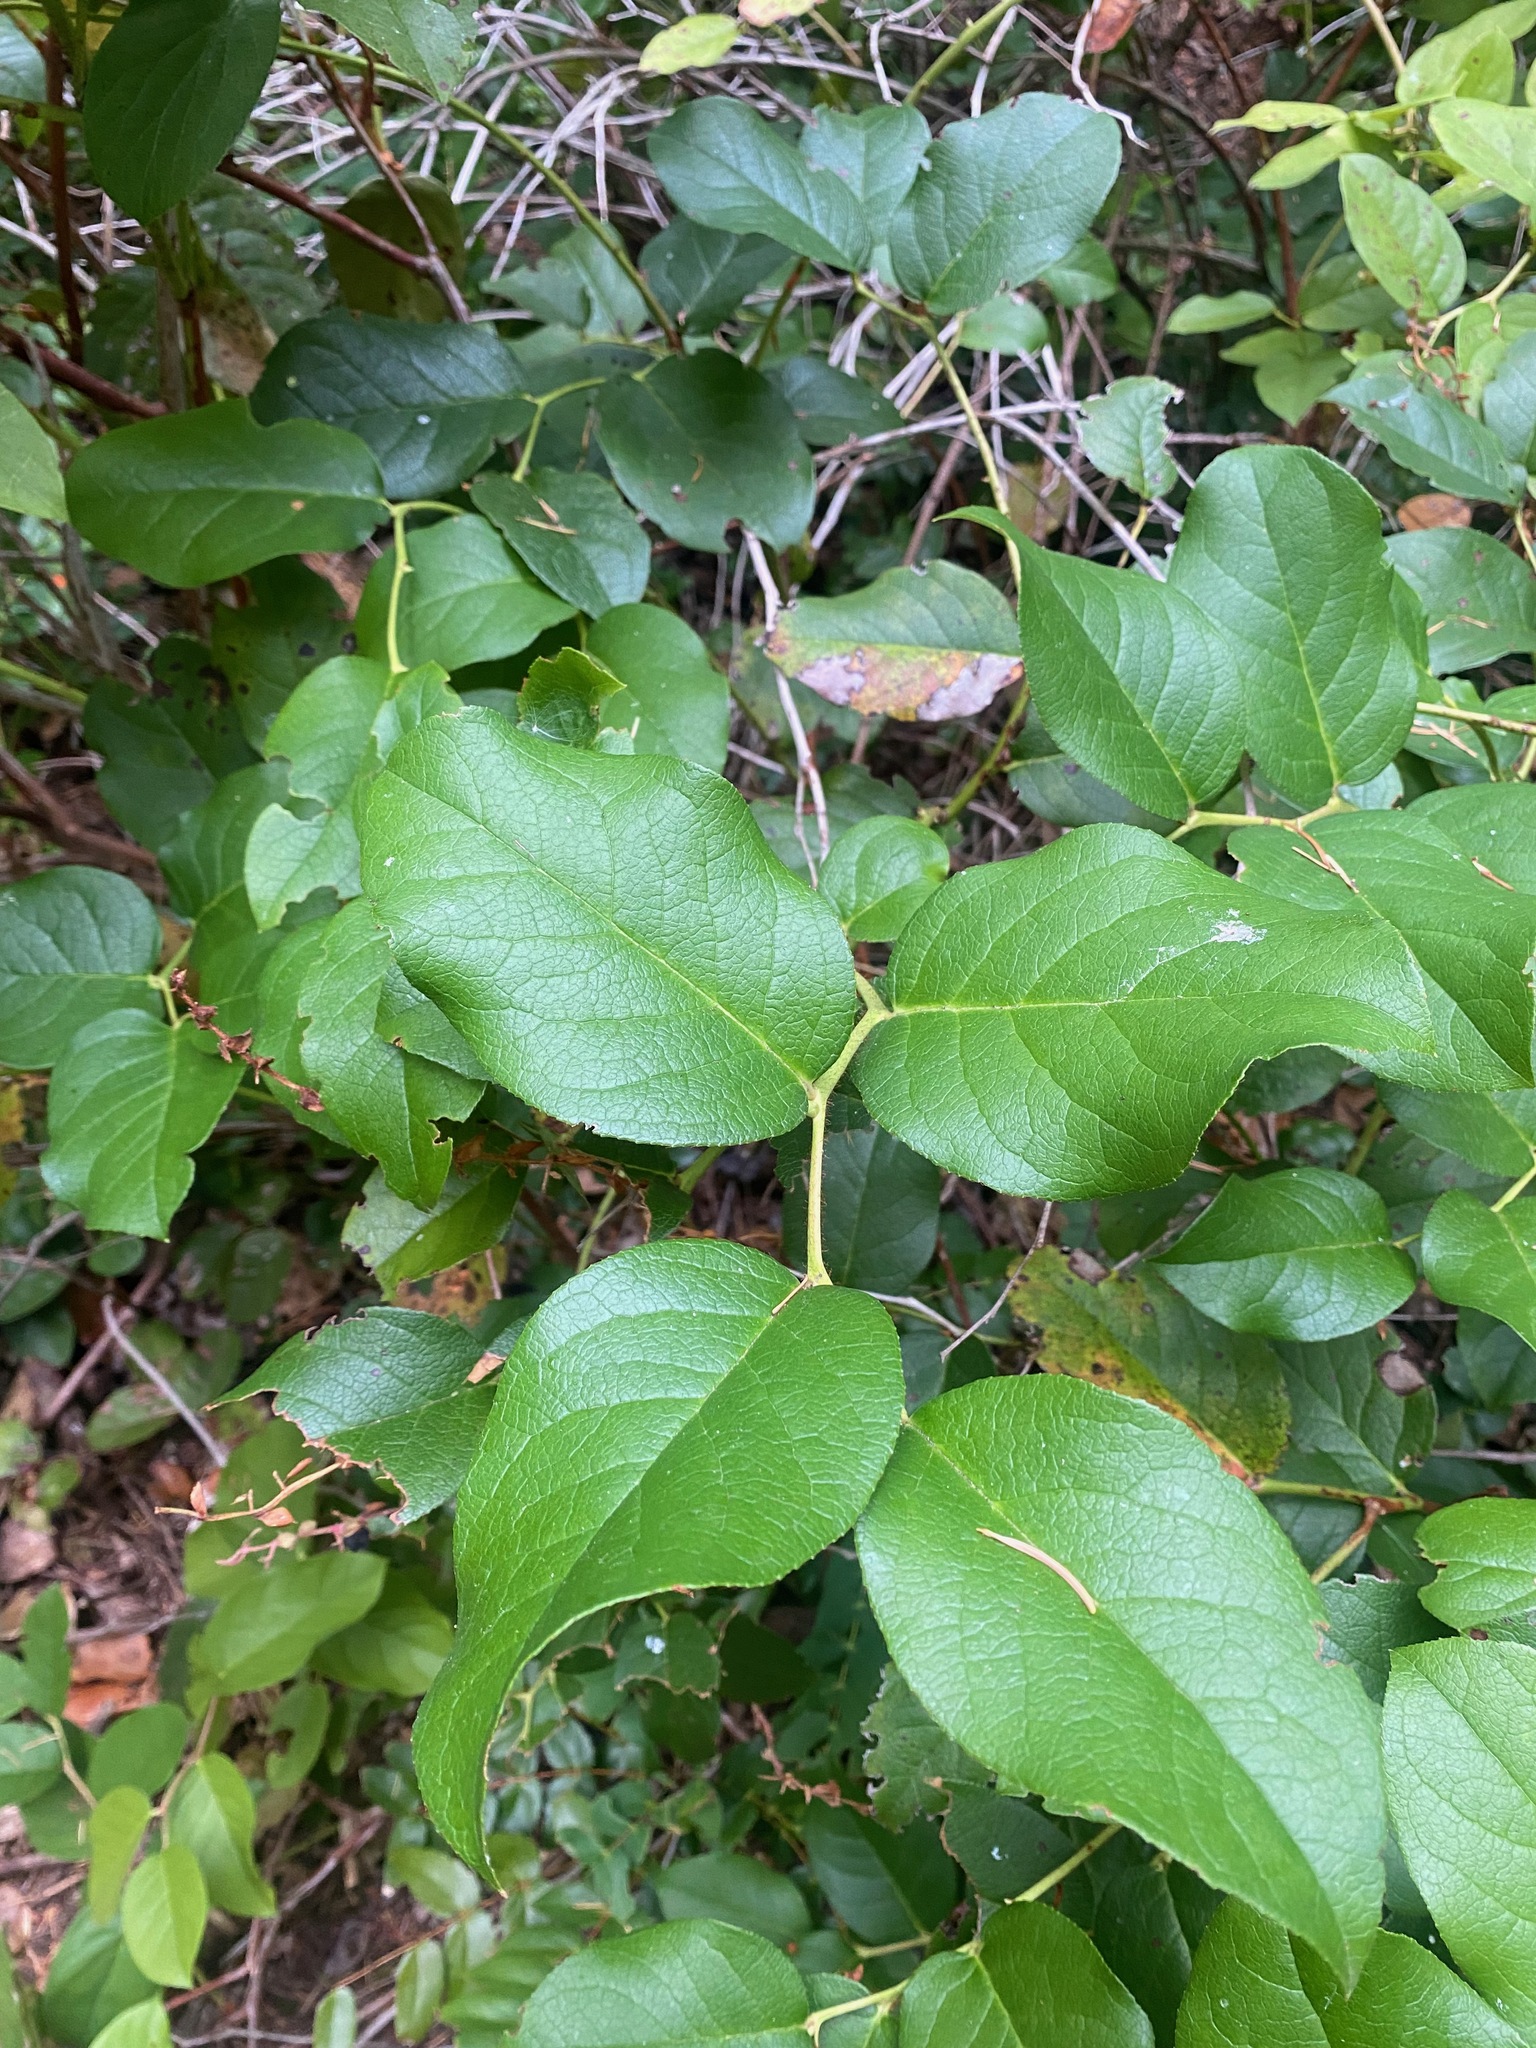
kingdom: Plantae
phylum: Tracheophyta
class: Magnoliopsida
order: Ericales
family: Ericaceae
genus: Gaultheria
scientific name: Gaultheria shallon
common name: Shallon
